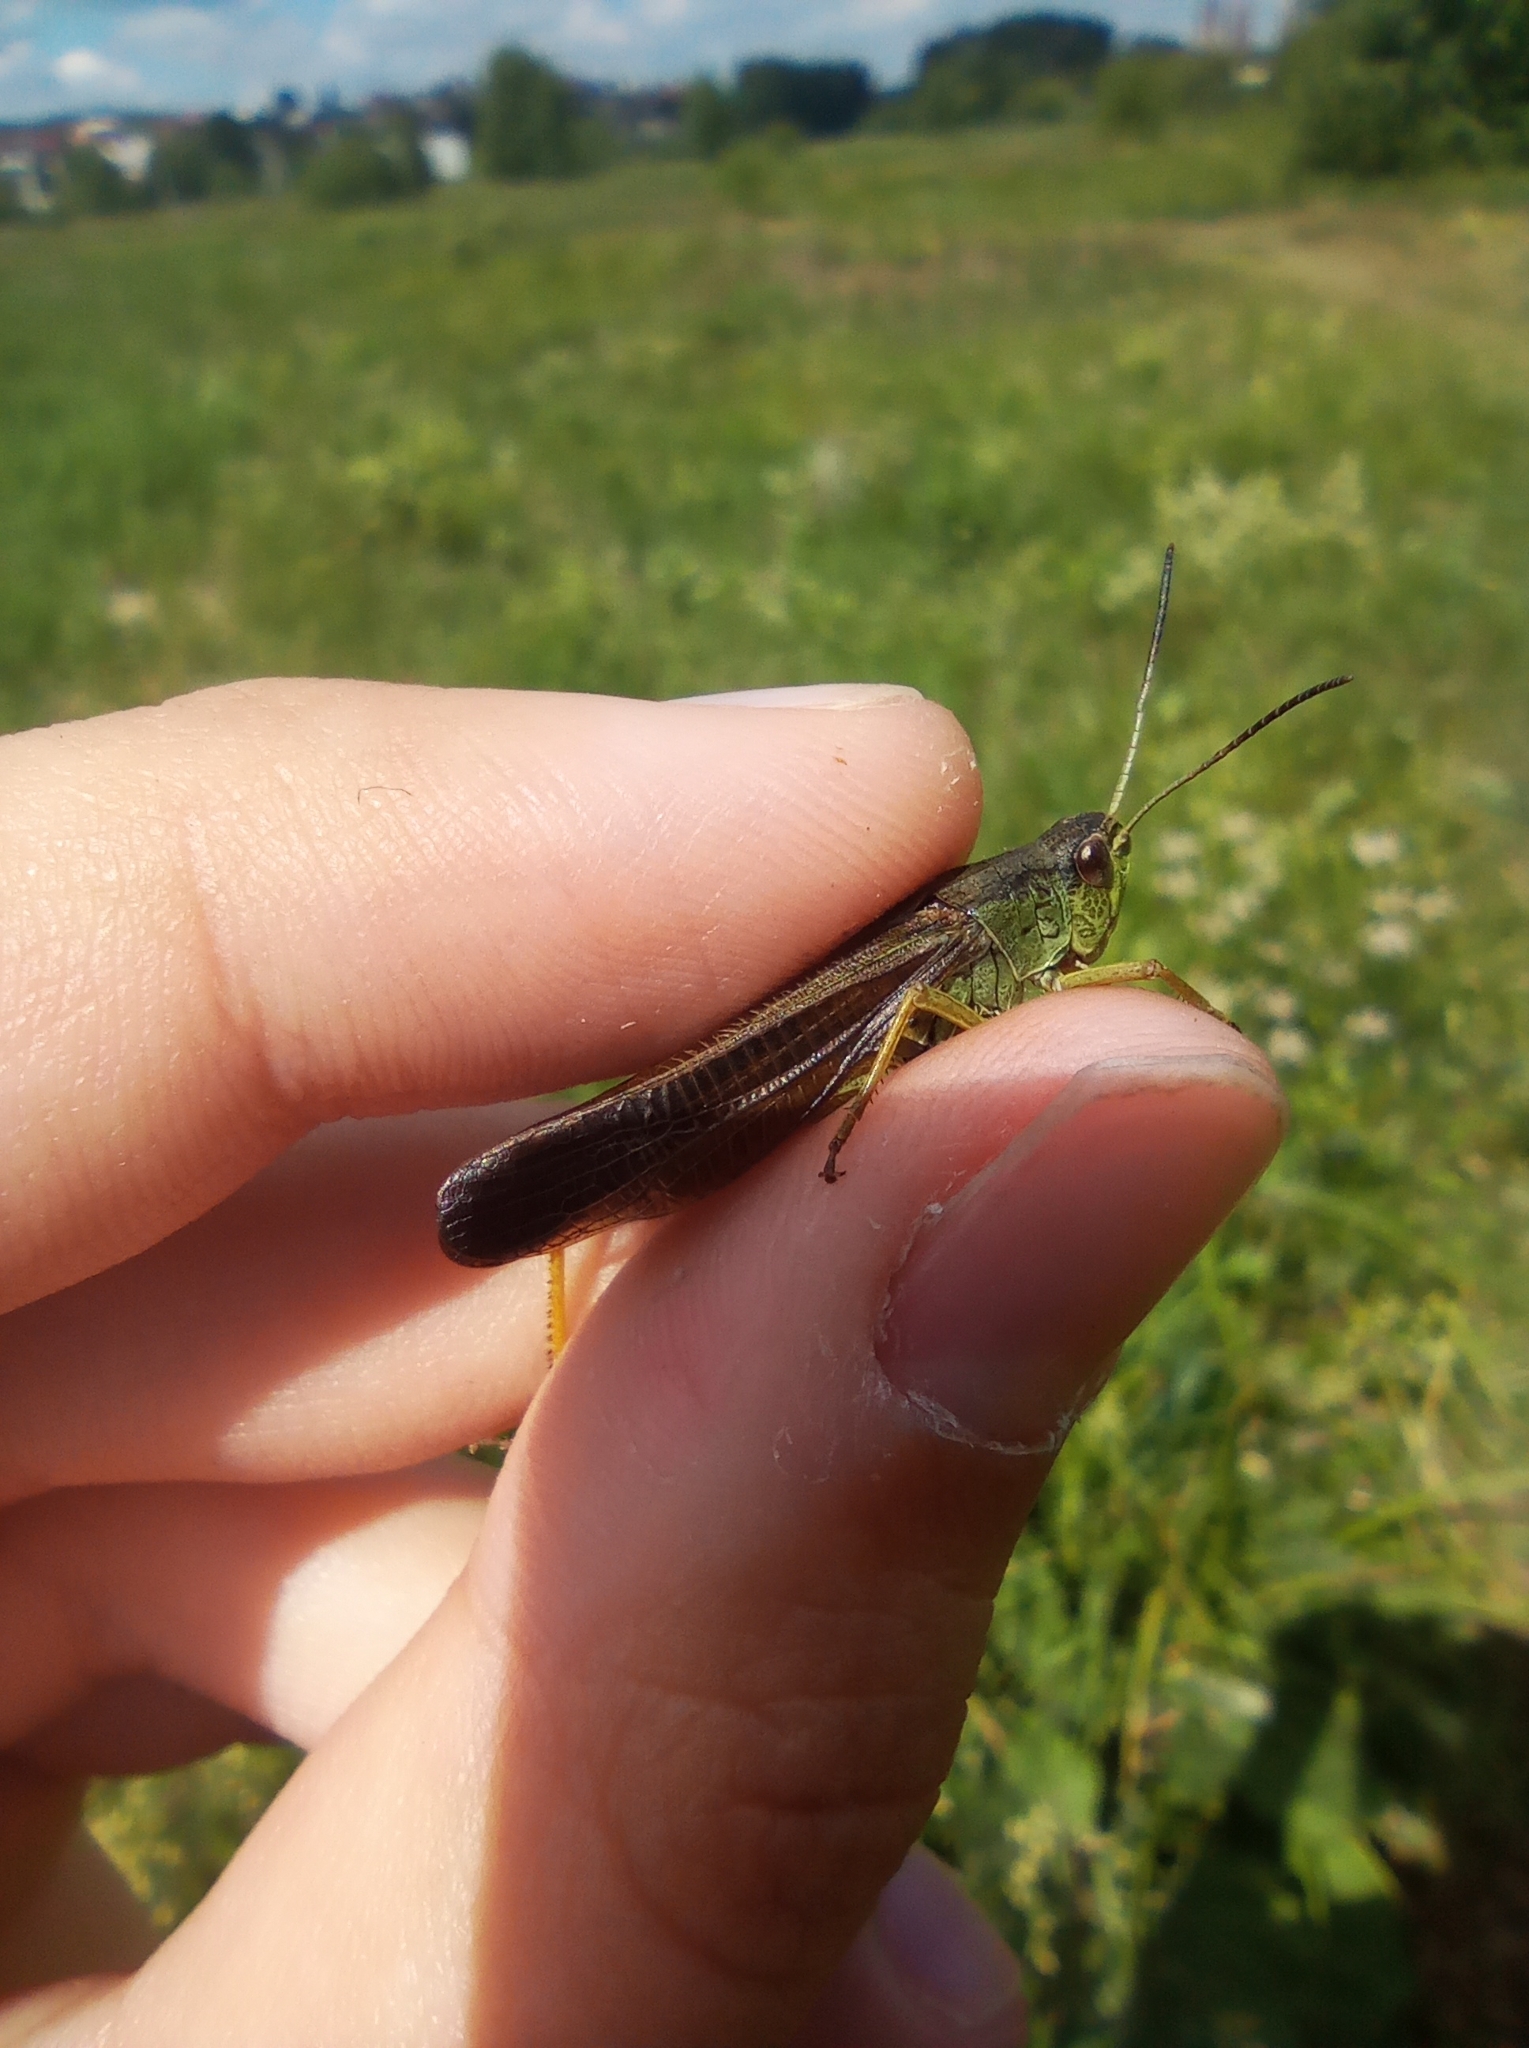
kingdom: Animalia
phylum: Arthropoda
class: Insecta
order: Orthoptera
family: Acrididae
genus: Stauroderus
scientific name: Stauroderus scalaris
